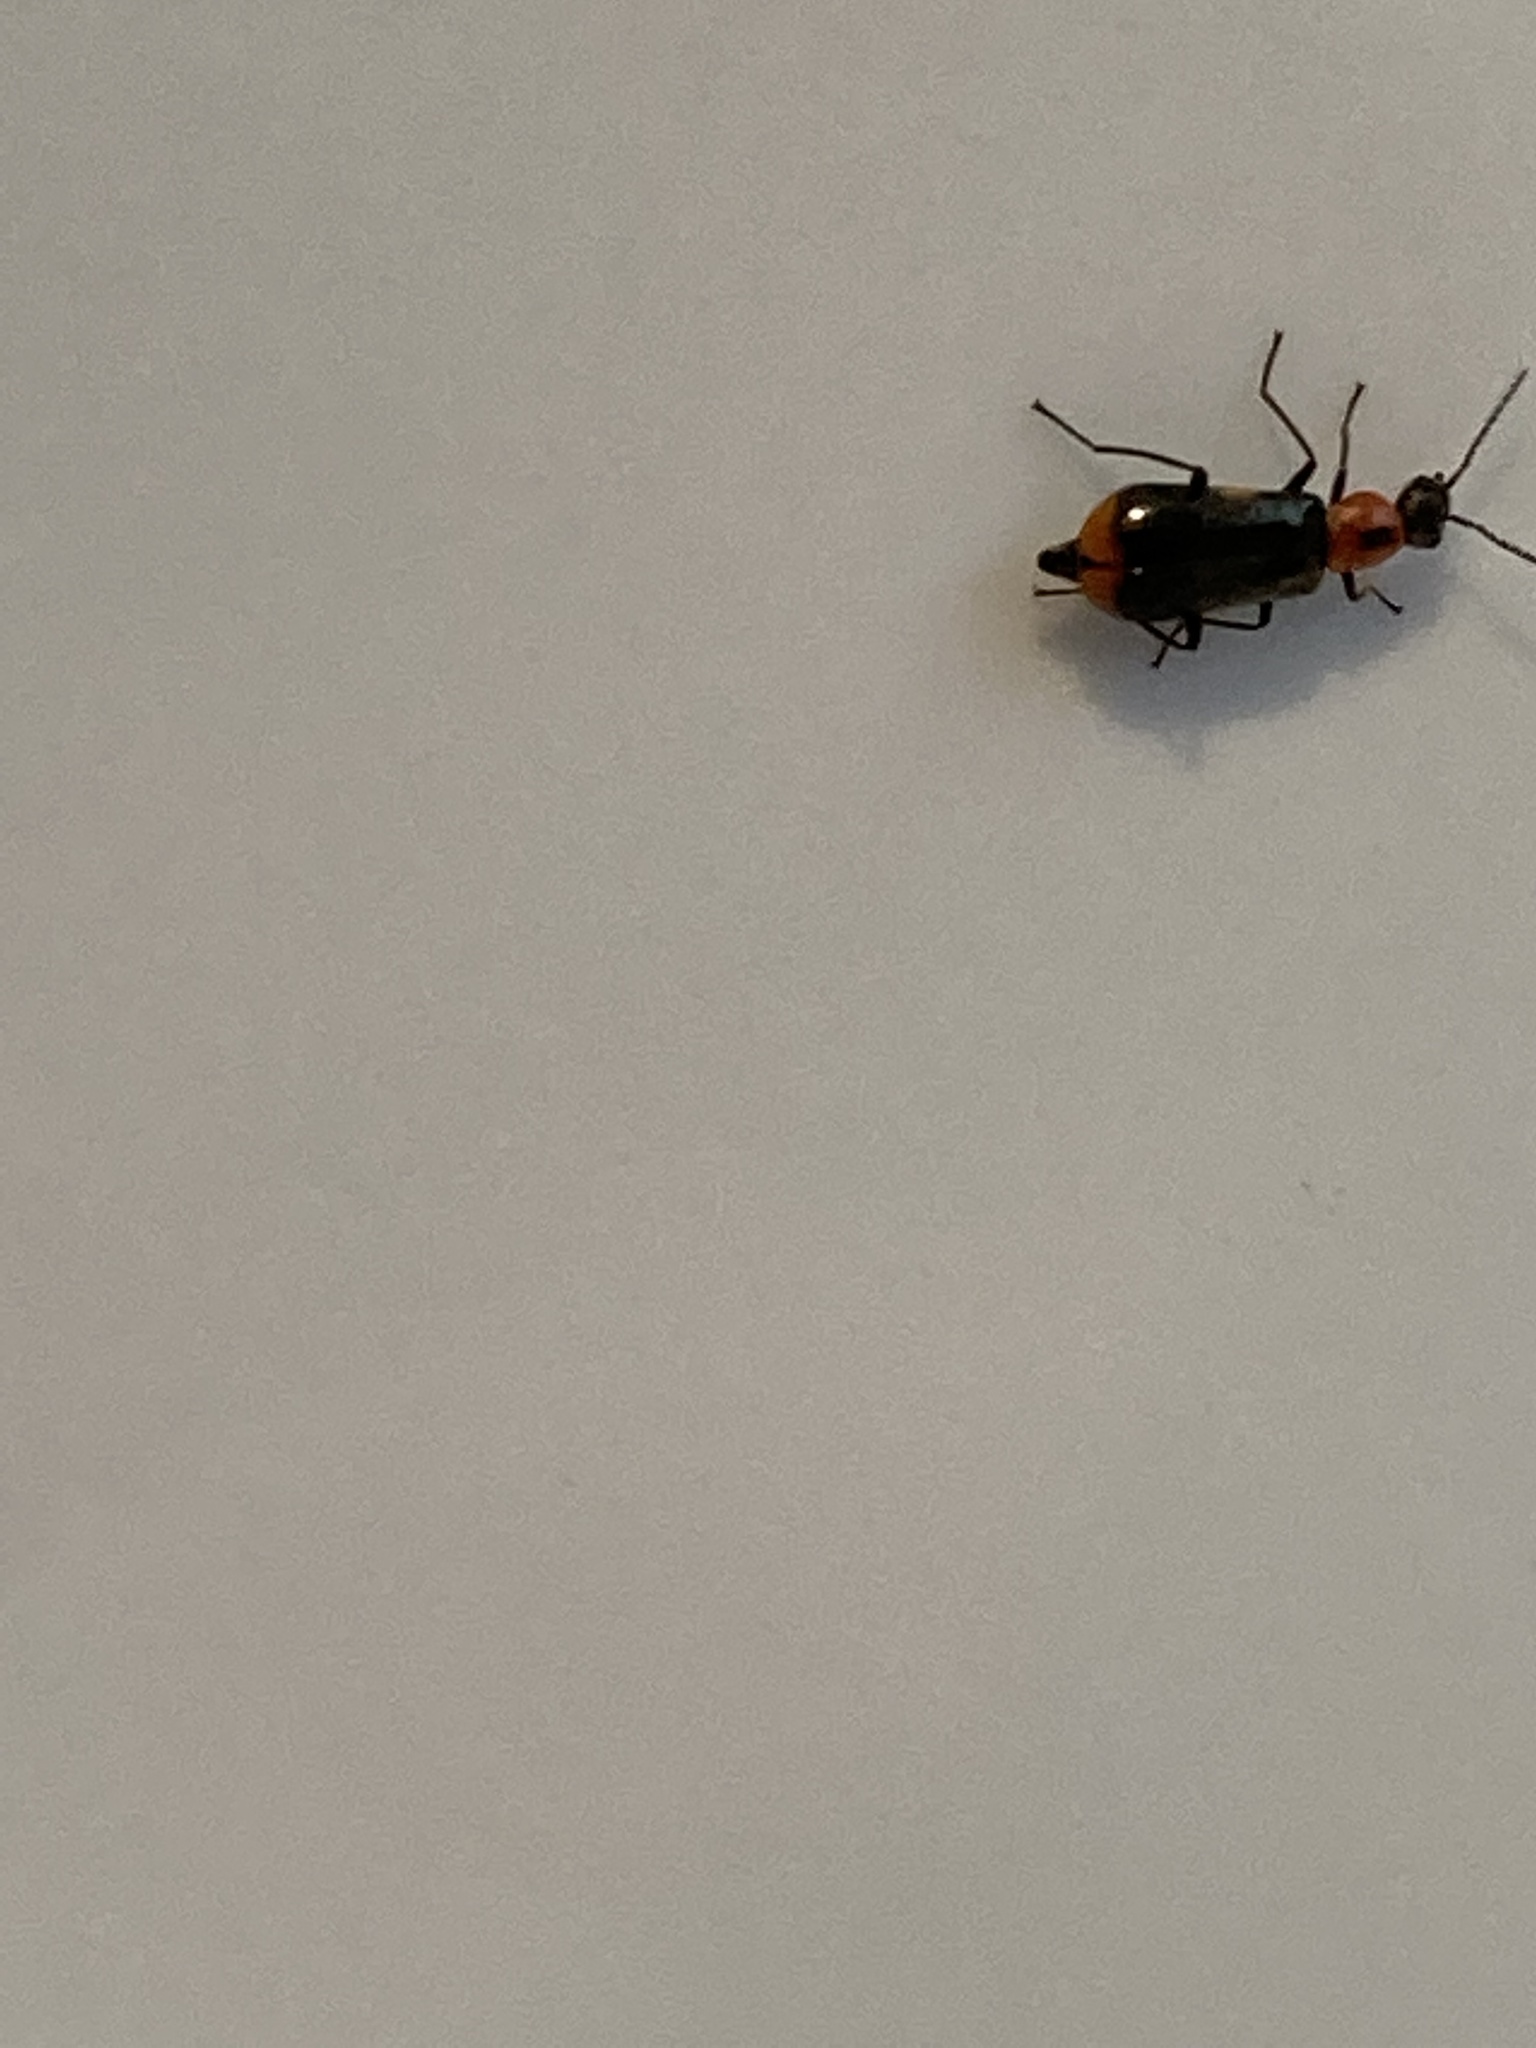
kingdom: Animalia
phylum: Arthropoda
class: Insecta
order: Coleoptera
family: Malachiidae
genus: Attalus
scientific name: Attalus minimus
